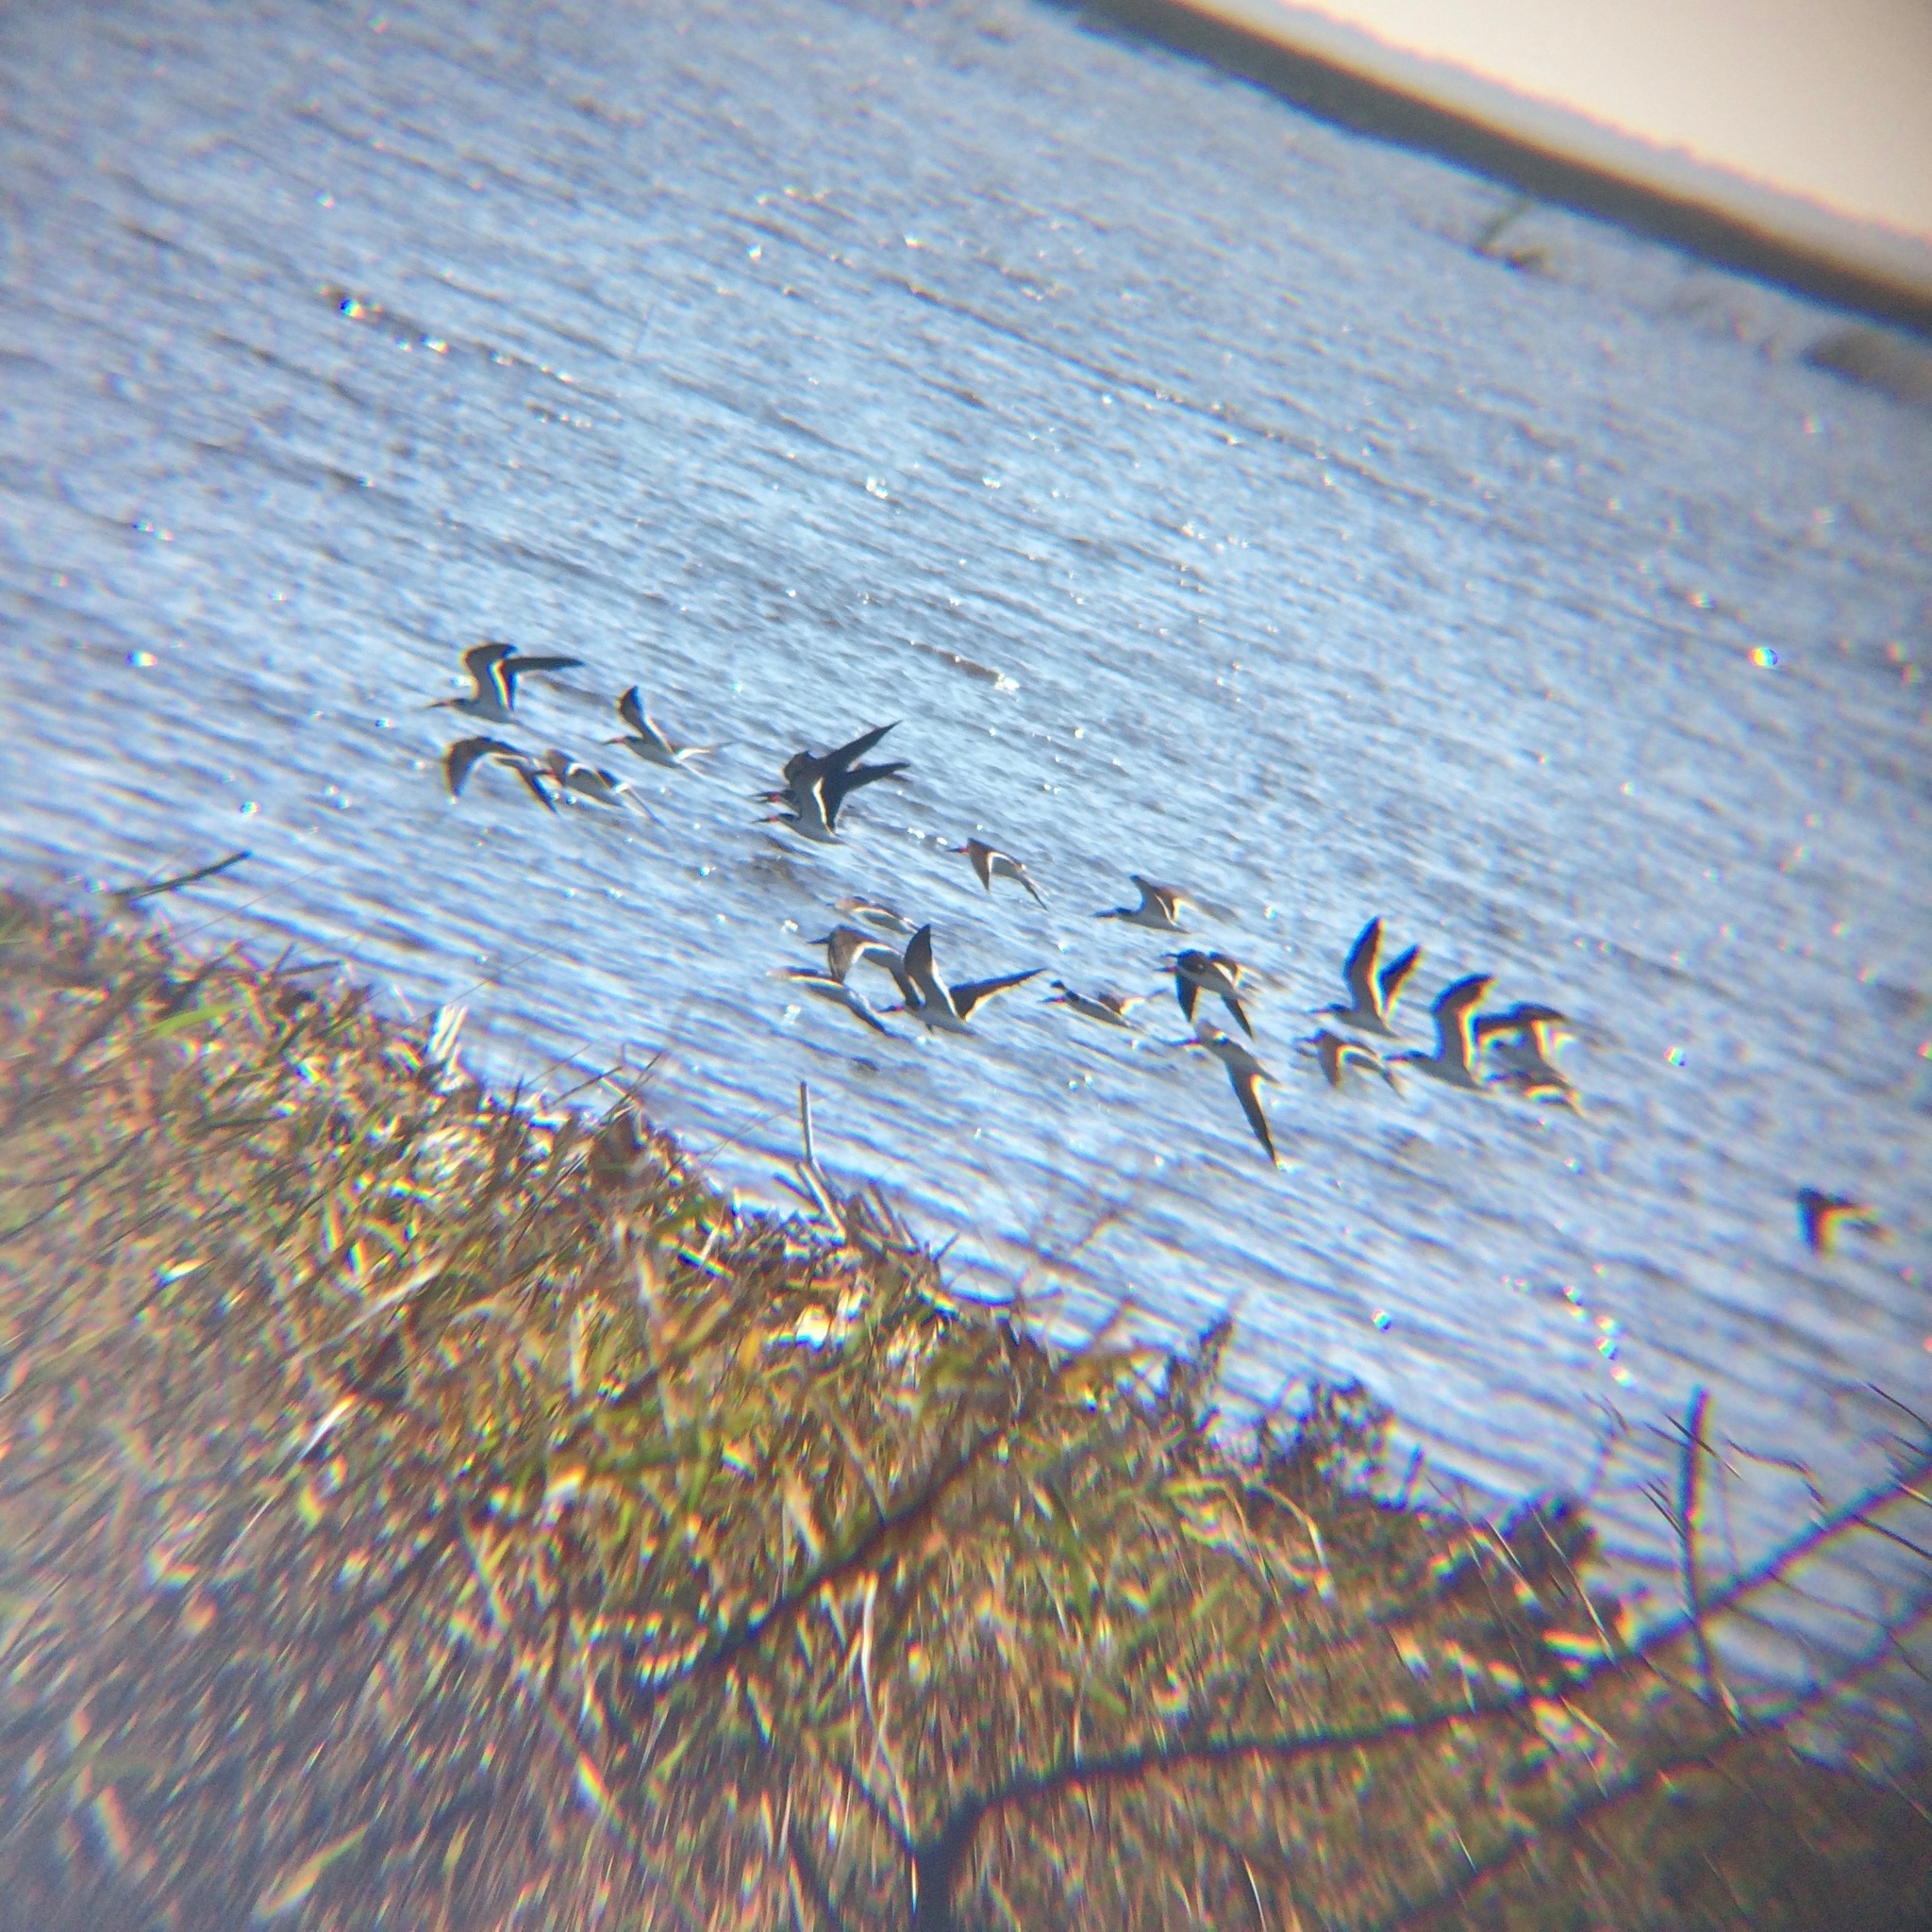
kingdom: Animalia
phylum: Chordata
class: Aves
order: Charadriiformes
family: Laridae
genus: Rynchops
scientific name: Rynchops niger
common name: Black skimmer
